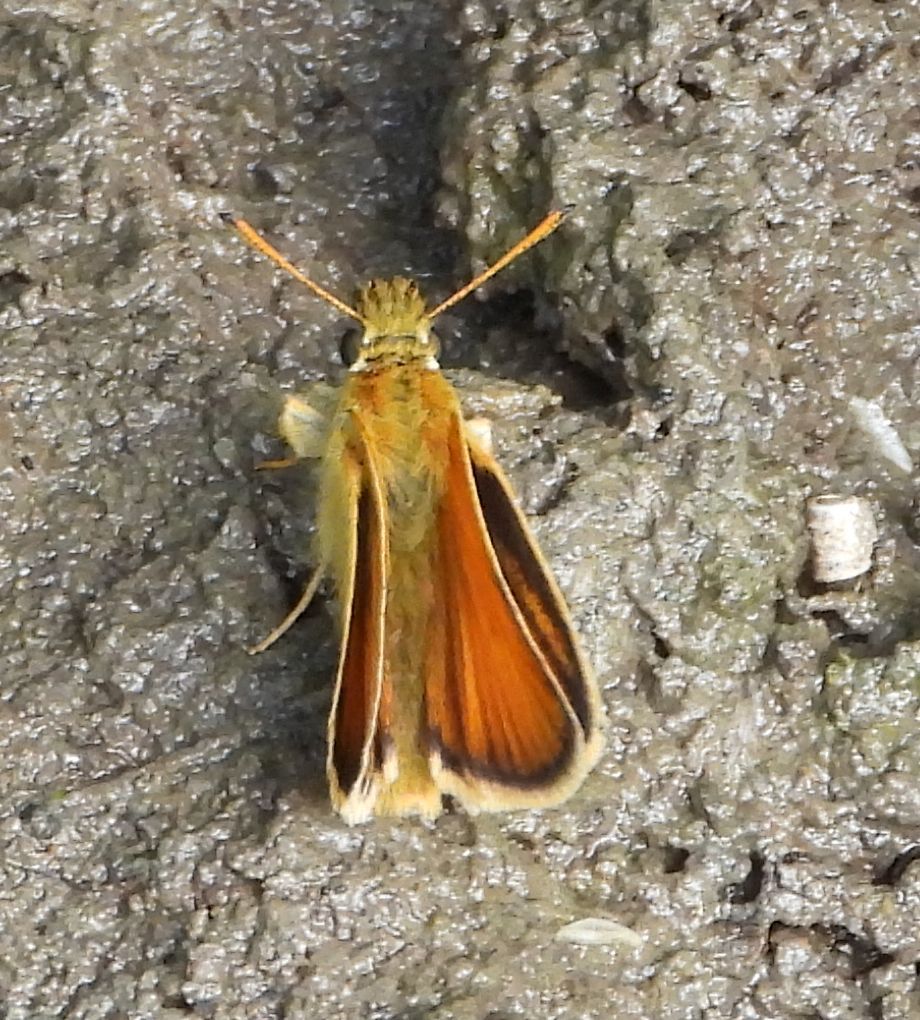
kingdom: Animalia
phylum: Arthropoda
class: Insecta
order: Lepidoptera
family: Hesperiidae
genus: Thymelicus
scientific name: Thymelicus lineola
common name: Essex skipper
